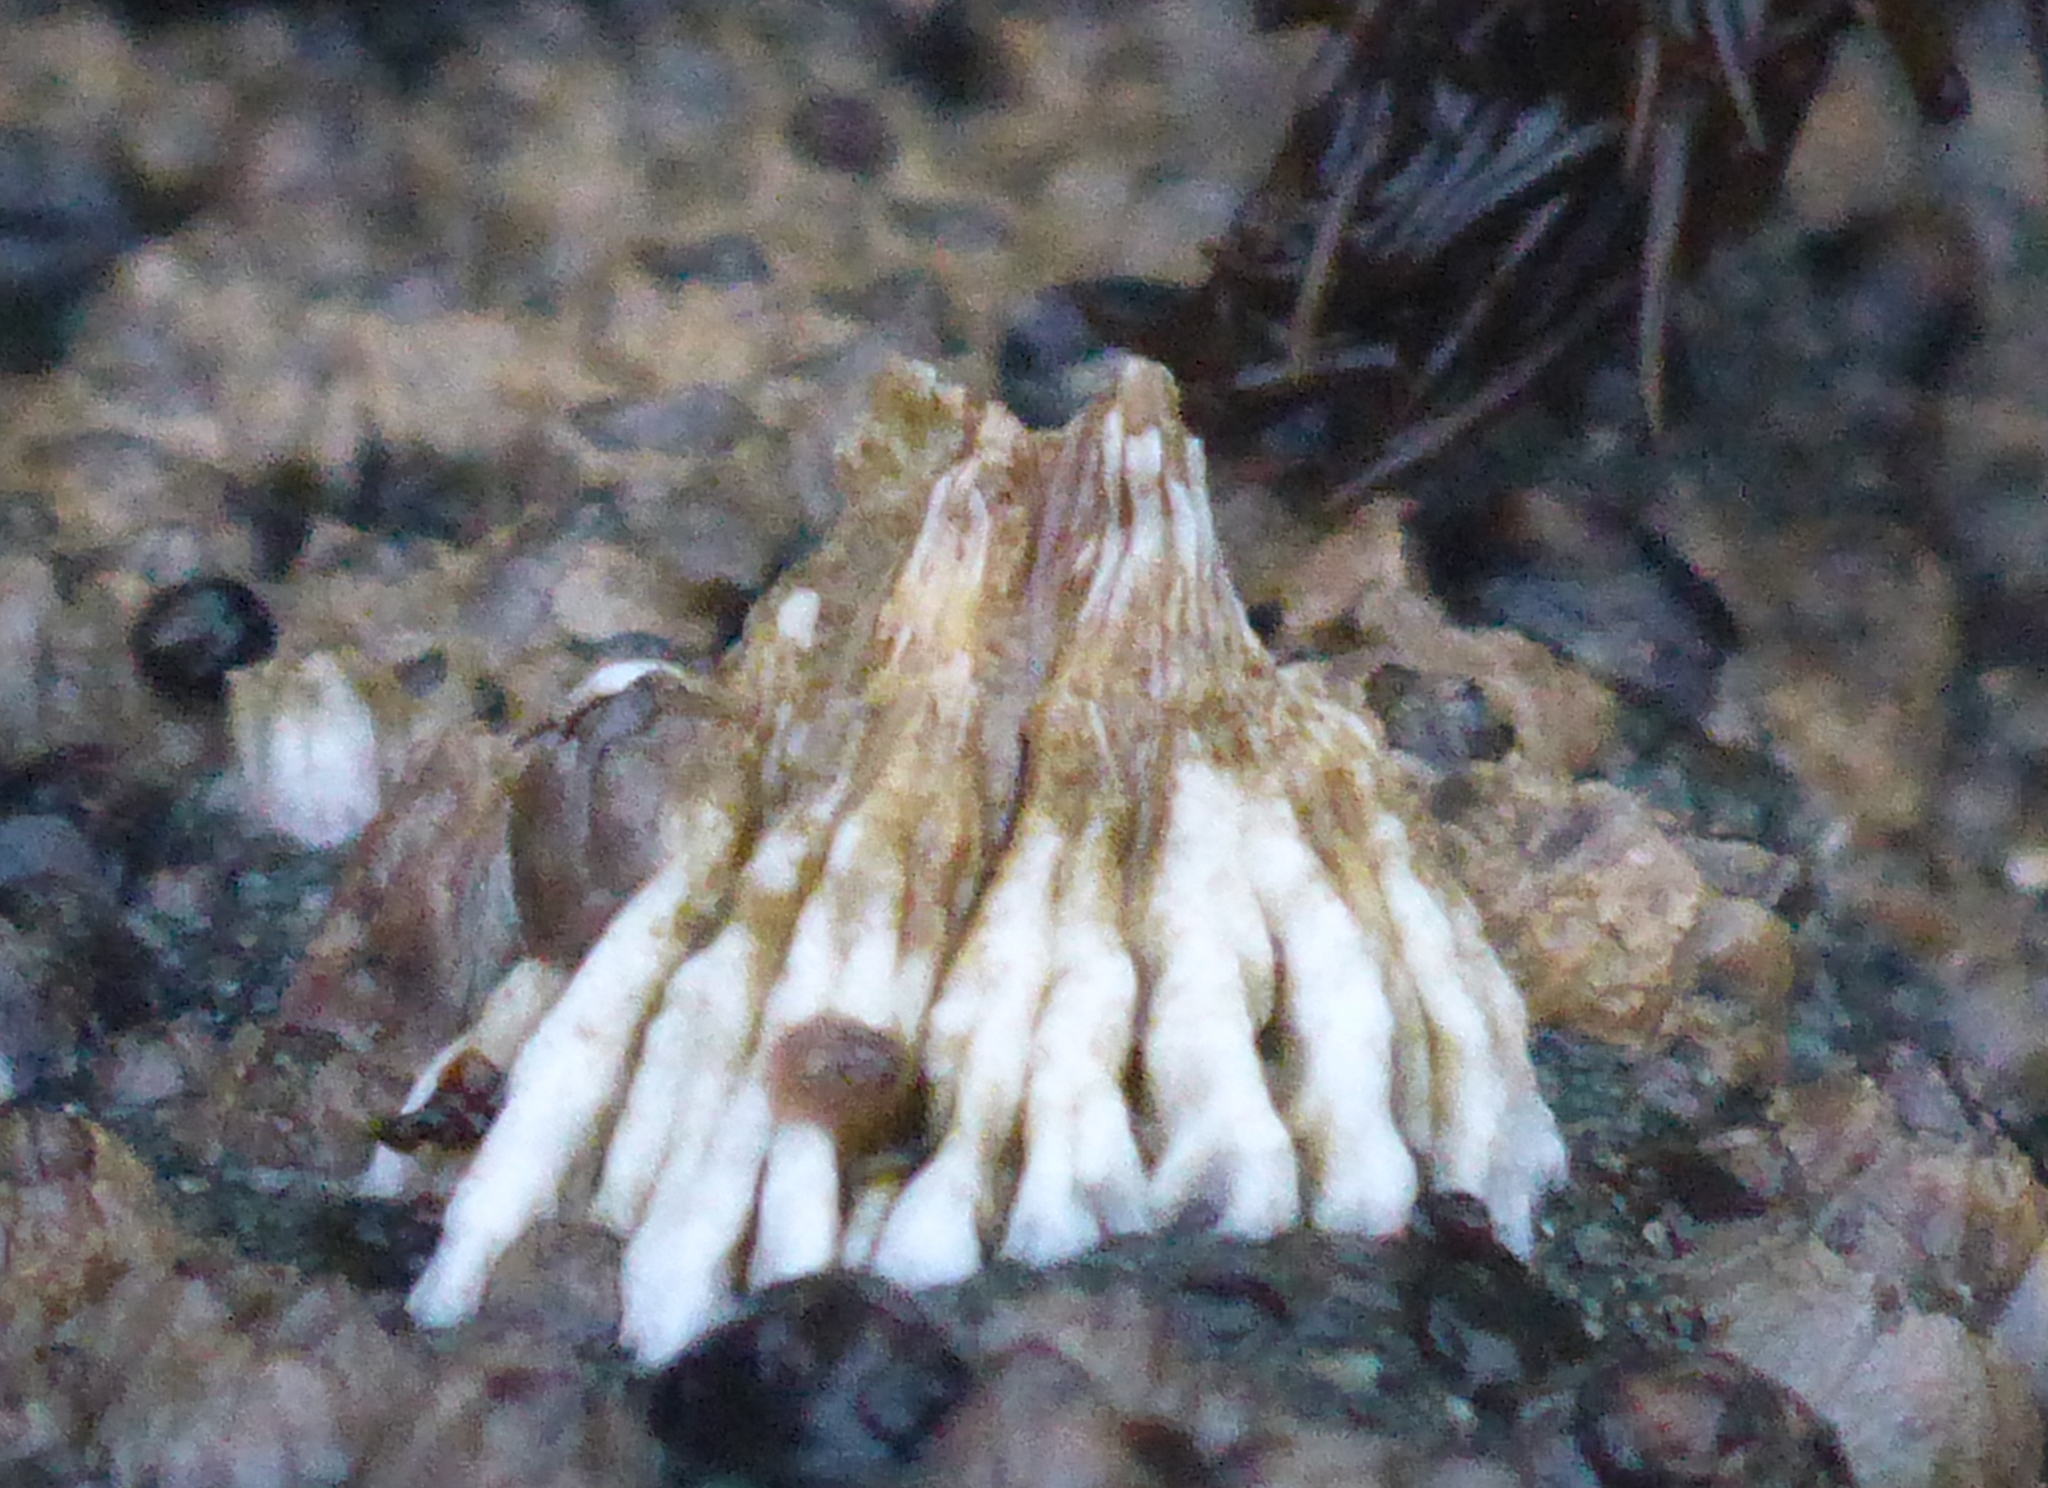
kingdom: Animalia
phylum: Arthropoda
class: Maxillopoda
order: Sessilia
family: Archaeobalanidae
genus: Semibalanus
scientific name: Semibalanus cariosus
